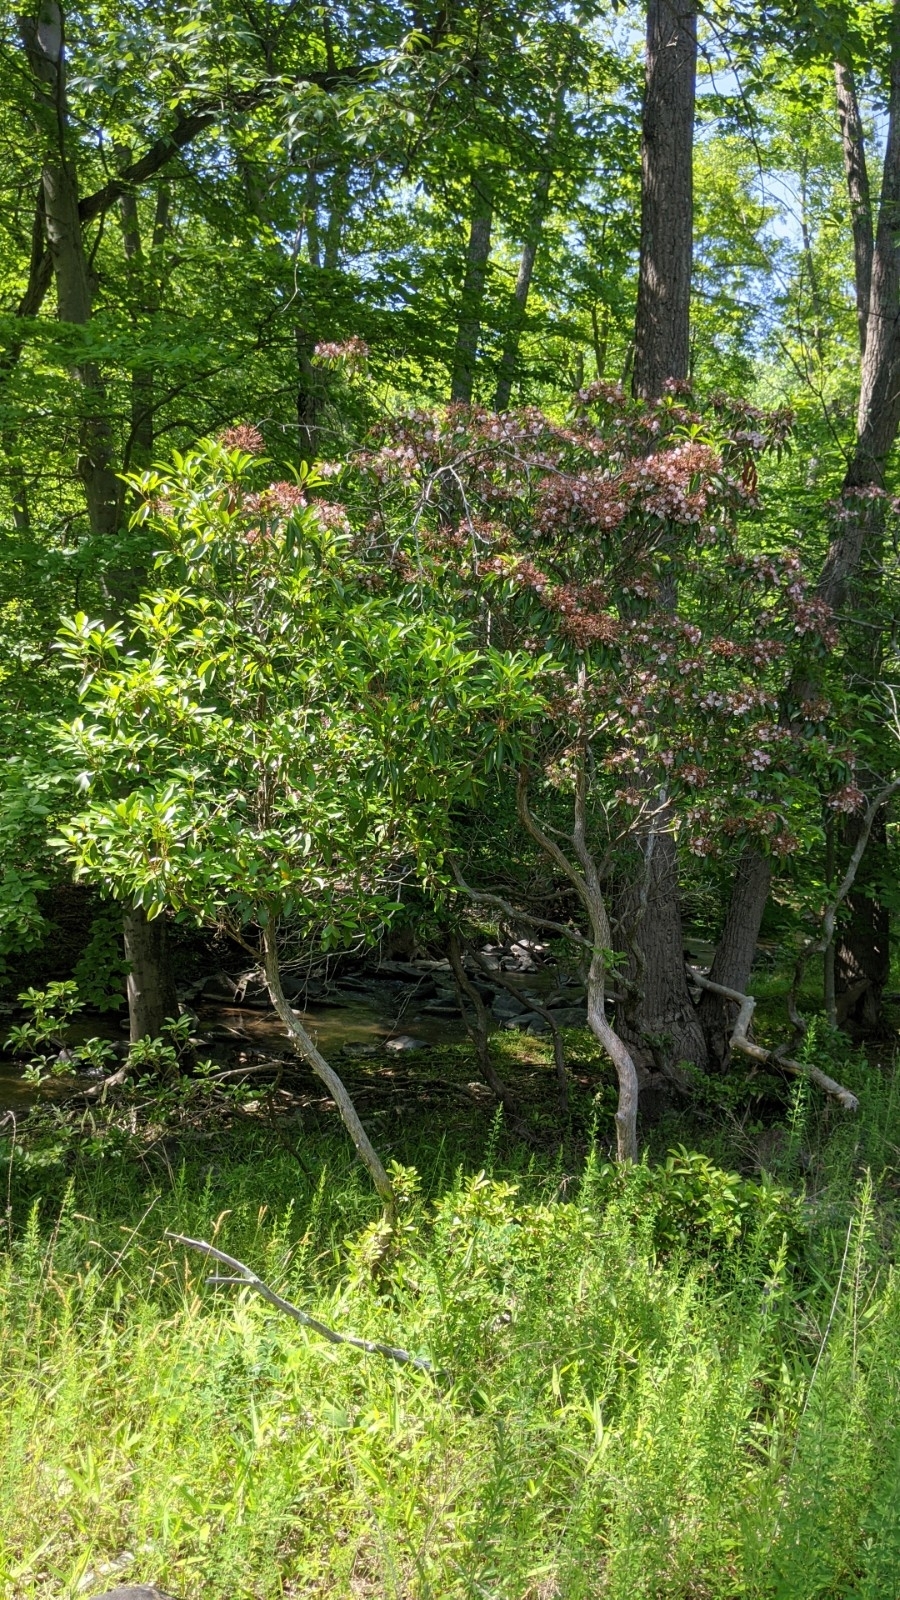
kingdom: Plantae
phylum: Tracheophyta
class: Magnoliopsida
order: Ericales
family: Ericaceae
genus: Kalmia
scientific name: Kalmia latifolia
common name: Mountain-laurel
